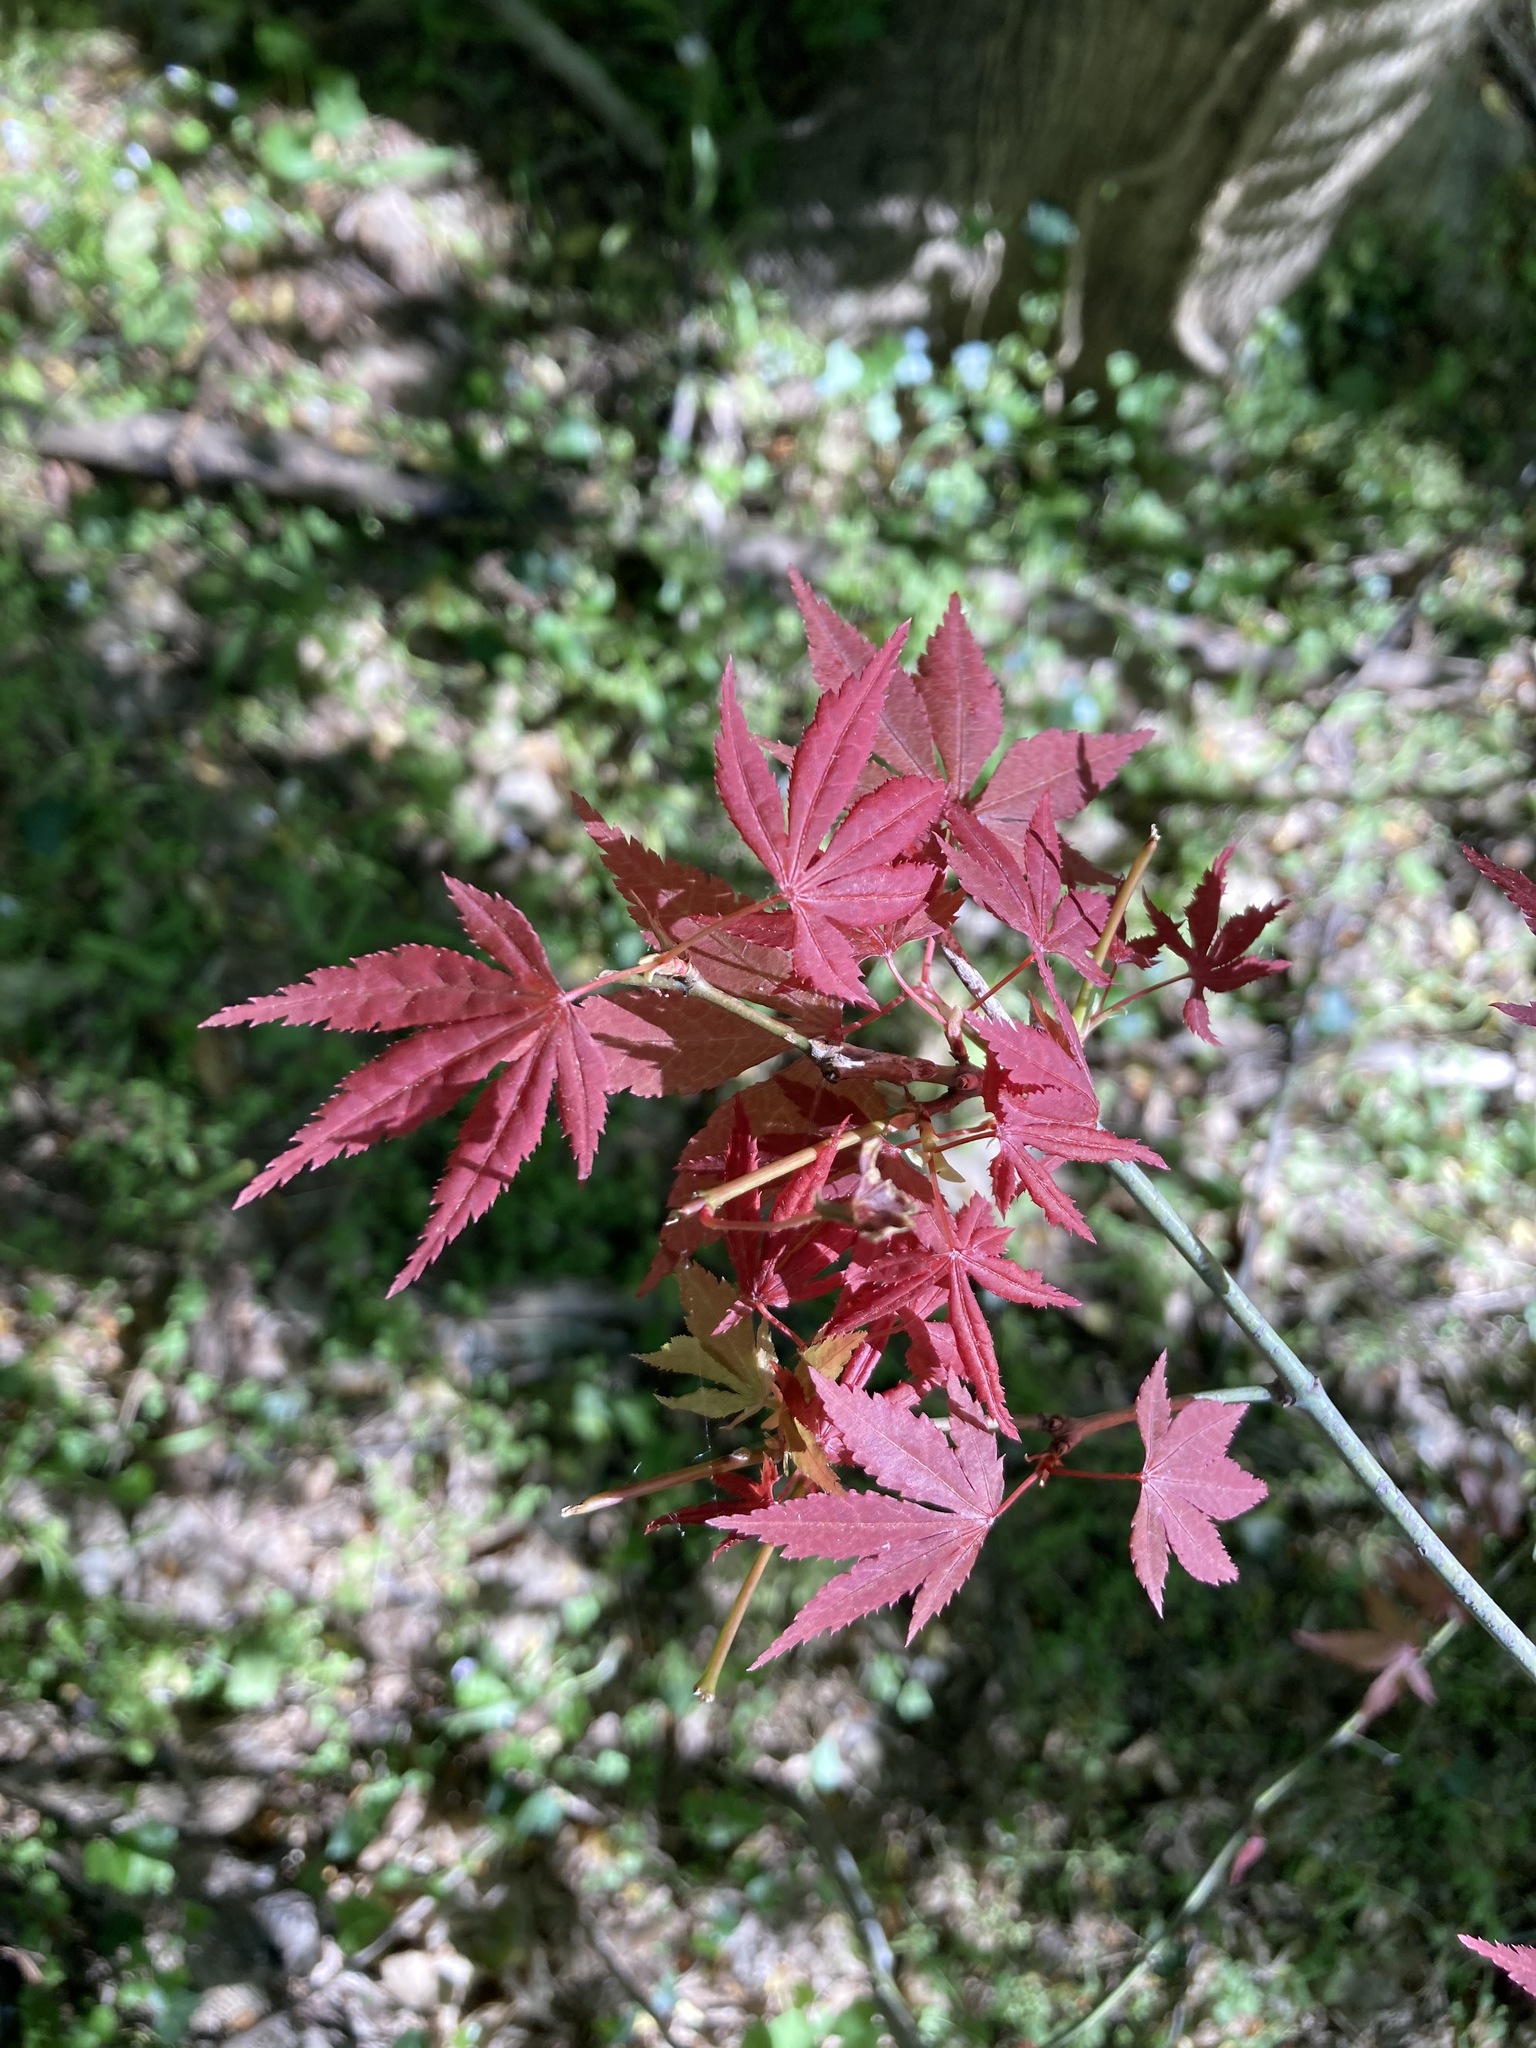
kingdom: Plantae
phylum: Tracheophyta
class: Magnoliopsida
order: Sapindales
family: Sapindaceae
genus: Acer
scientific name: Acer palmatum
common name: Japanese maple
